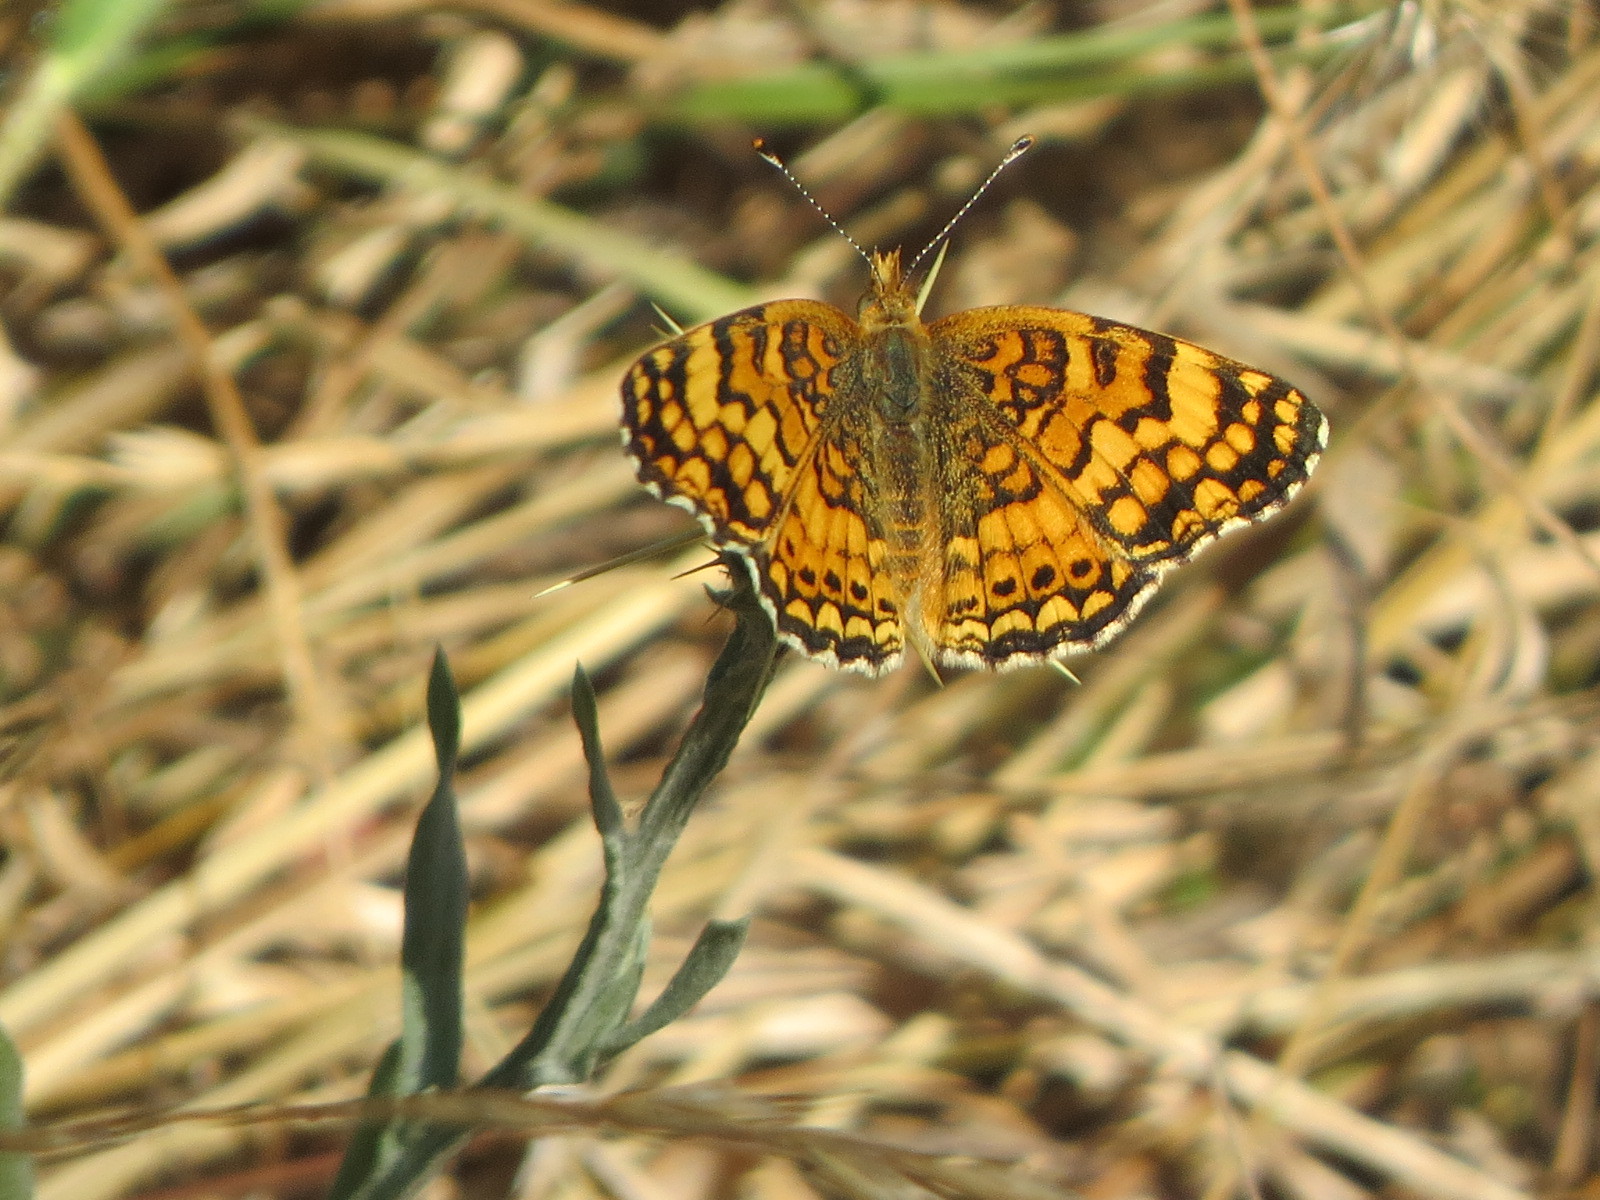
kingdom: Animalia
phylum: Arthropoda
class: Insecta
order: Lepidoptera
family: Nymphalidae
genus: Eresia
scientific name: Eresia aveyrona
